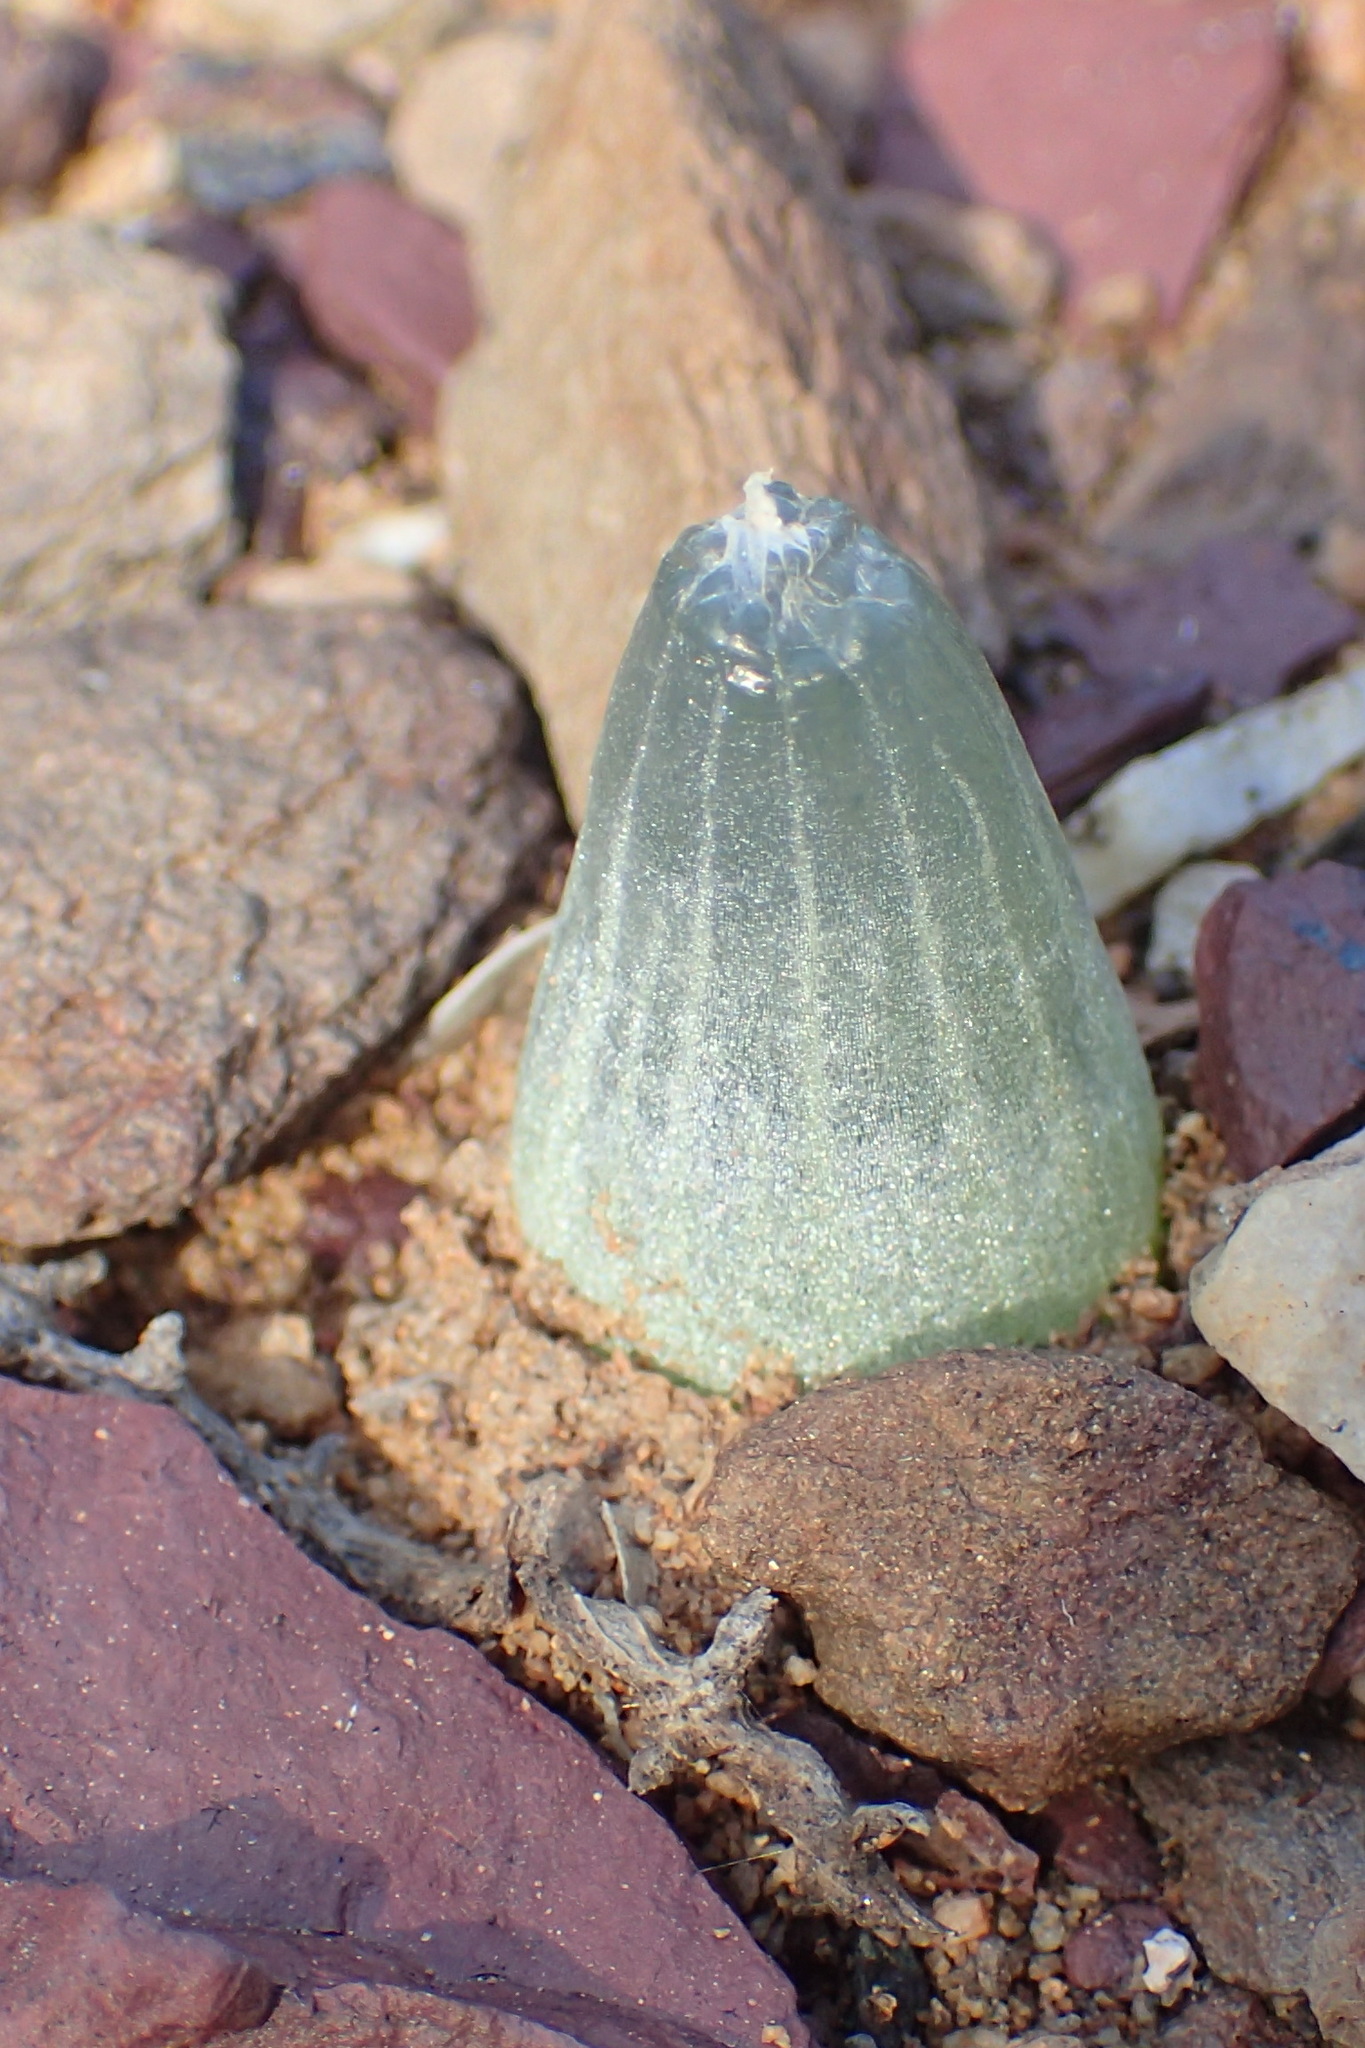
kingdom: Plantae
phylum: Tracheophyta
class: Liliopsida
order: Asparagales
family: Asphodelaceae
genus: Bulbine
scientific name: Bulbine mesembryanthoides
